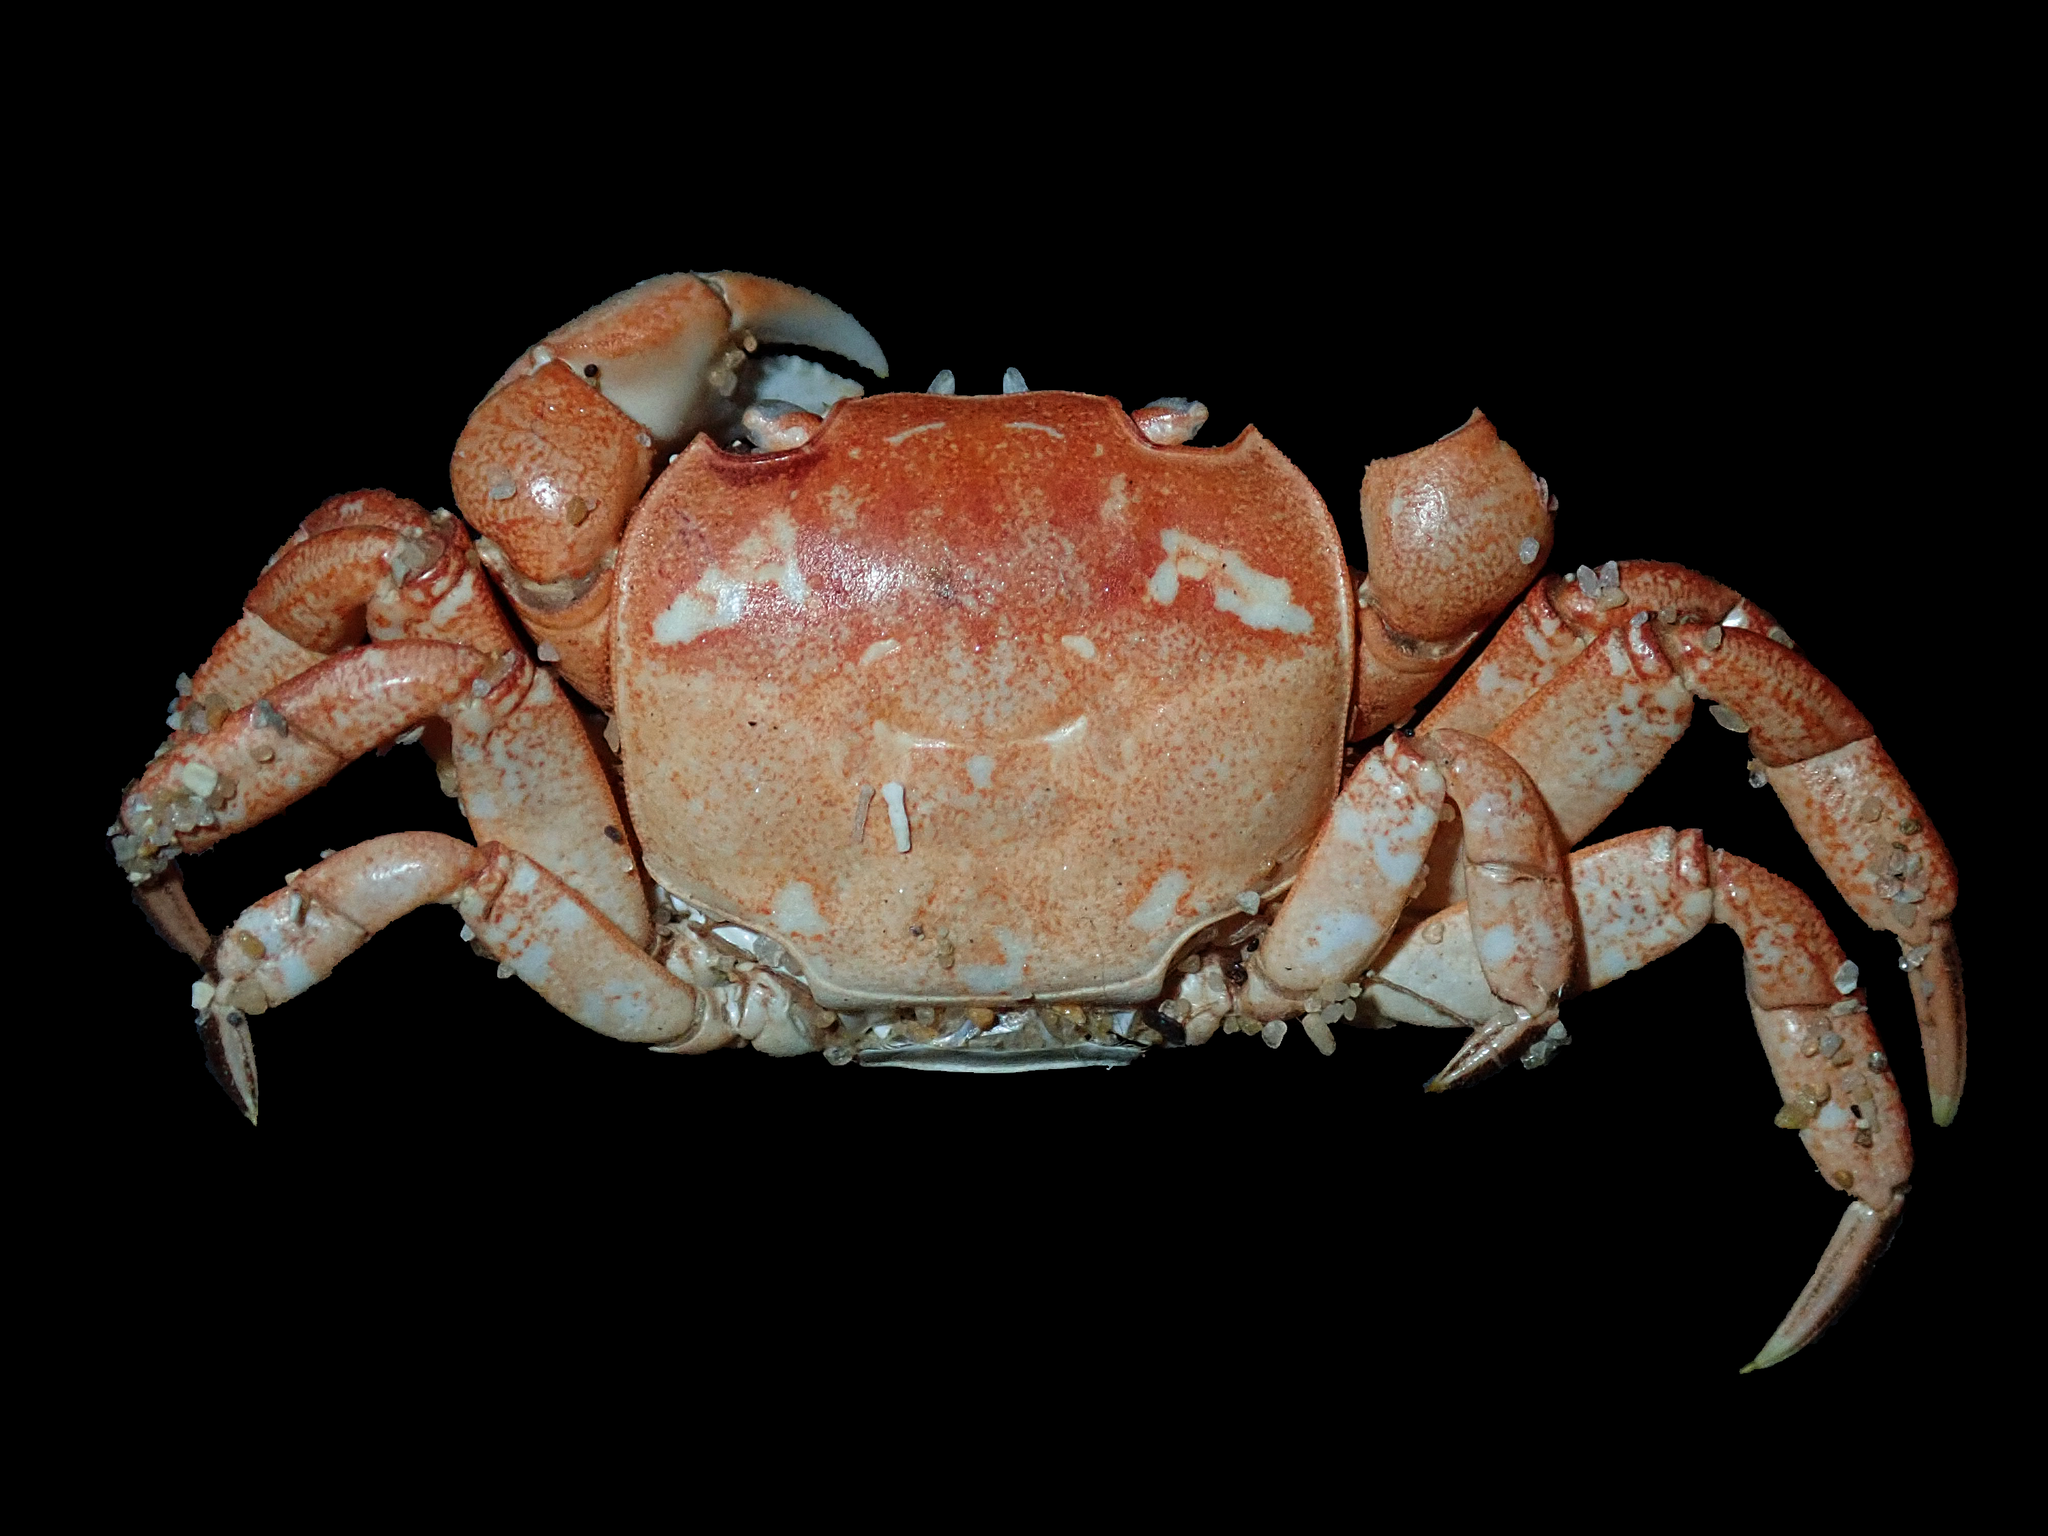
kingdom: Animalia
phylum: Arthropoda
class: Malacostraca
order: Decapoda
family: Varunidae
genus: Cyclograpsus
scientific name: Cyclograpsus audouinii
